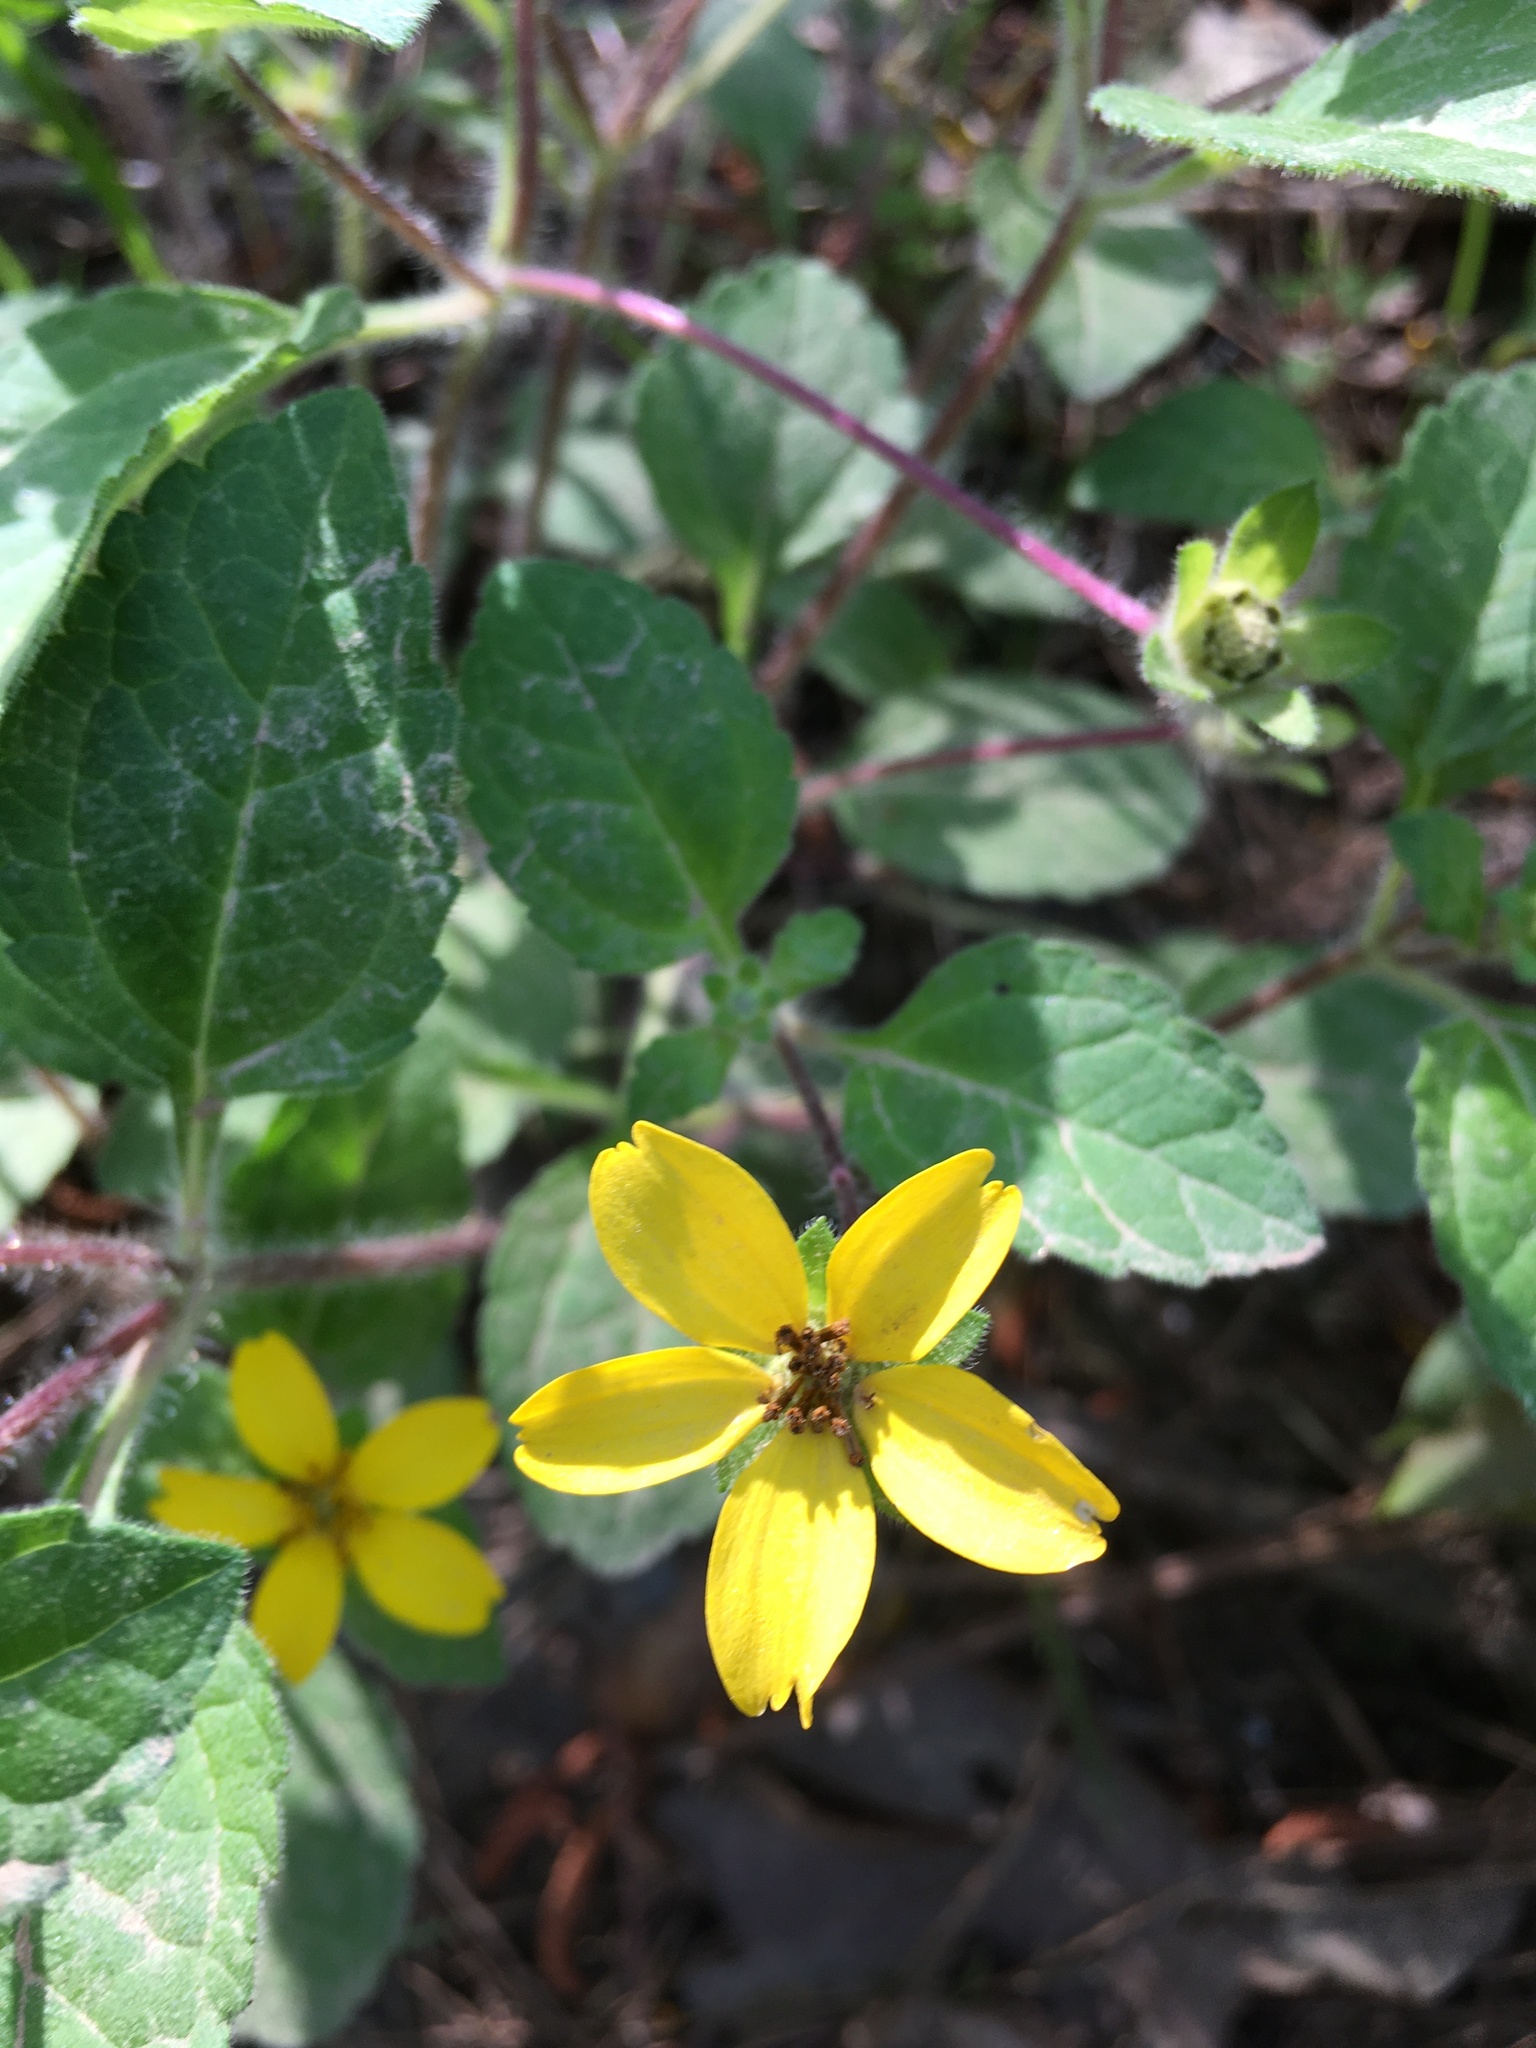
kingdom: Plantae
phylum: Tracheophyta
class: Magnoliopsida
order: Asterales
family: Asteraceae
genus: Chrysogonum
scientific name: Chrysogonum virginianum
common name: Golden-knee
